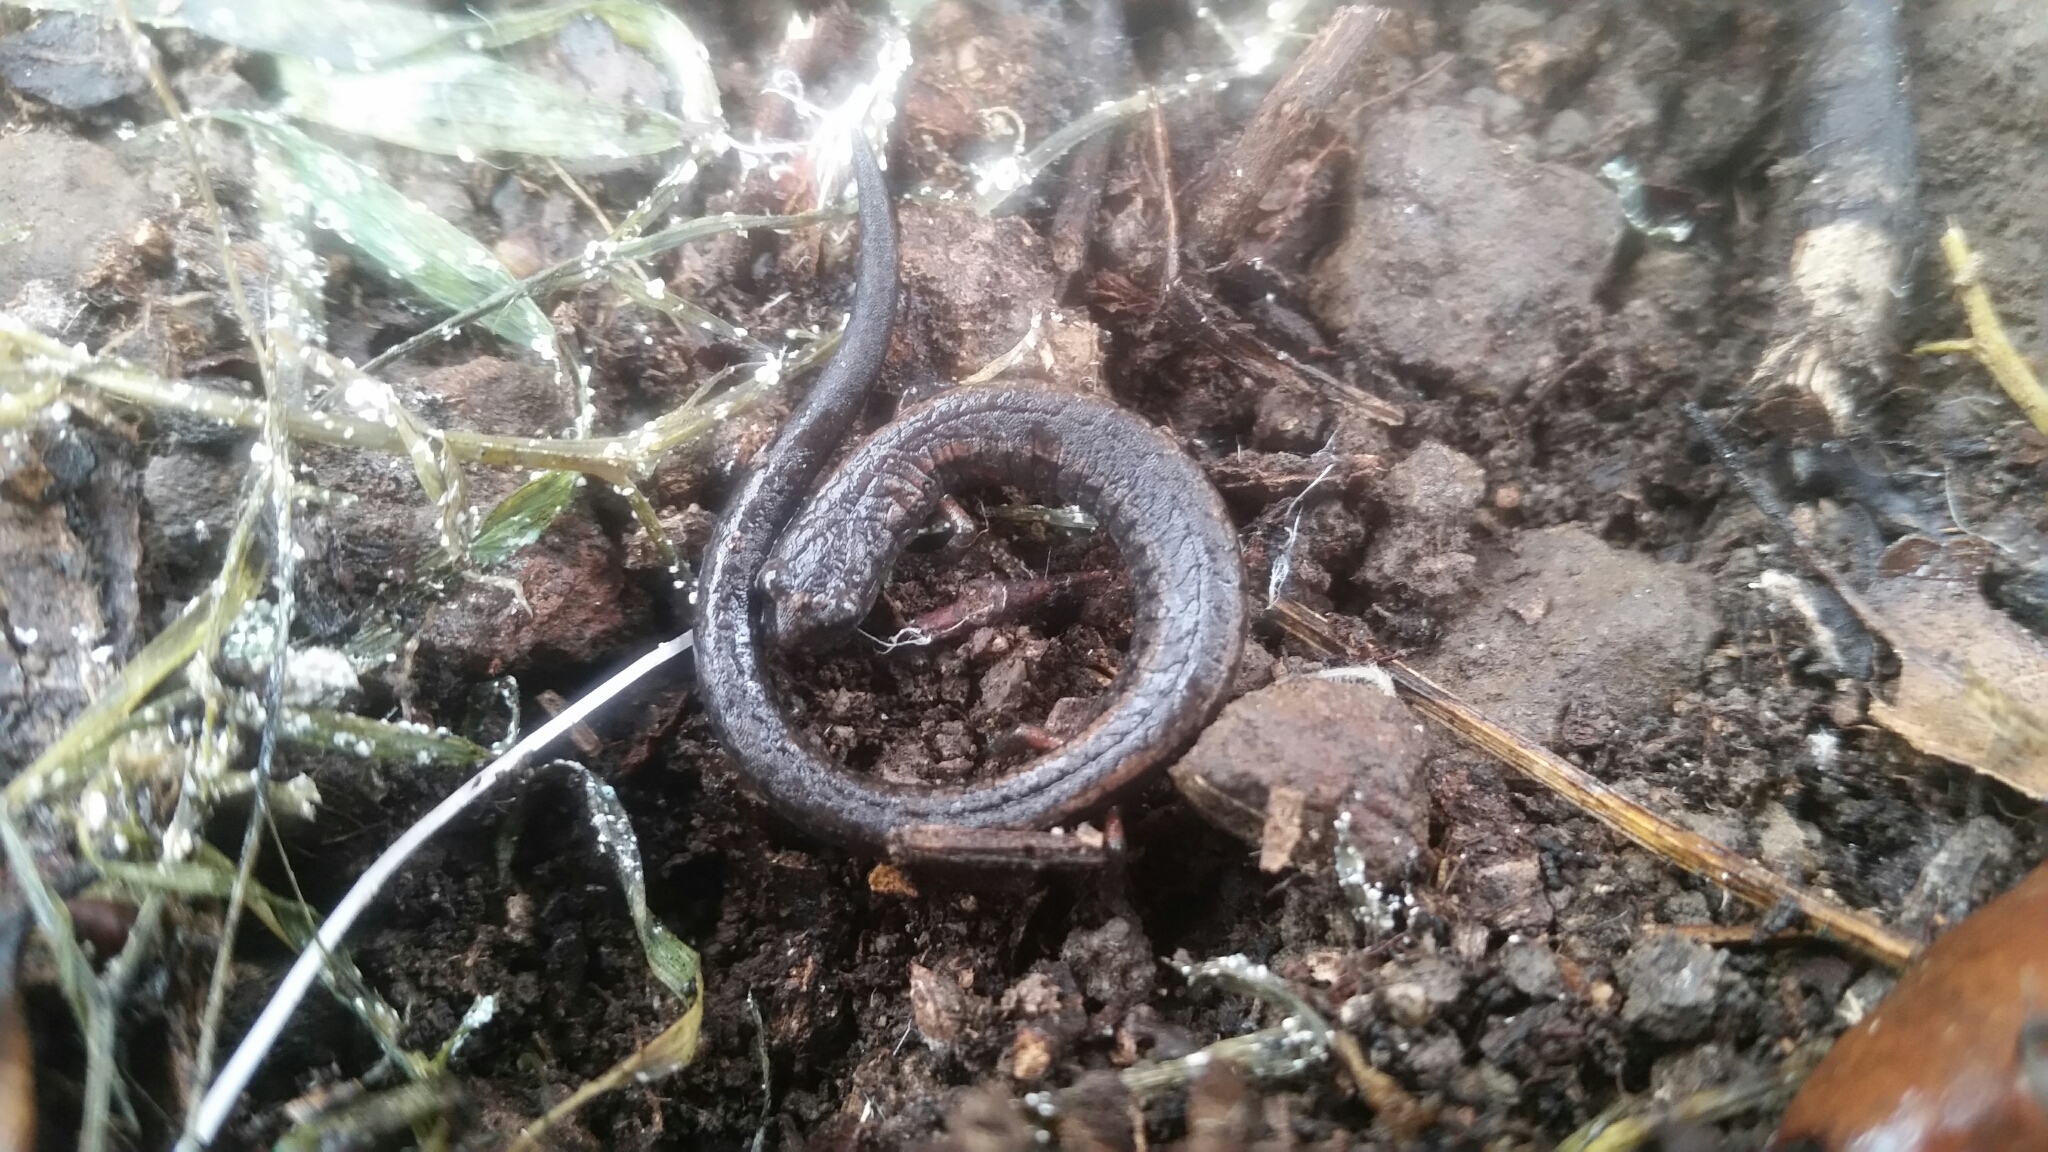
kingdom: Animalia
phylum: Chordata
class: Amphibia
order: Caudata
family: Plethodontidae
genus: Batrachoseps
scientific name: Batrachoseps attenuatus
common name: California slender salamander
